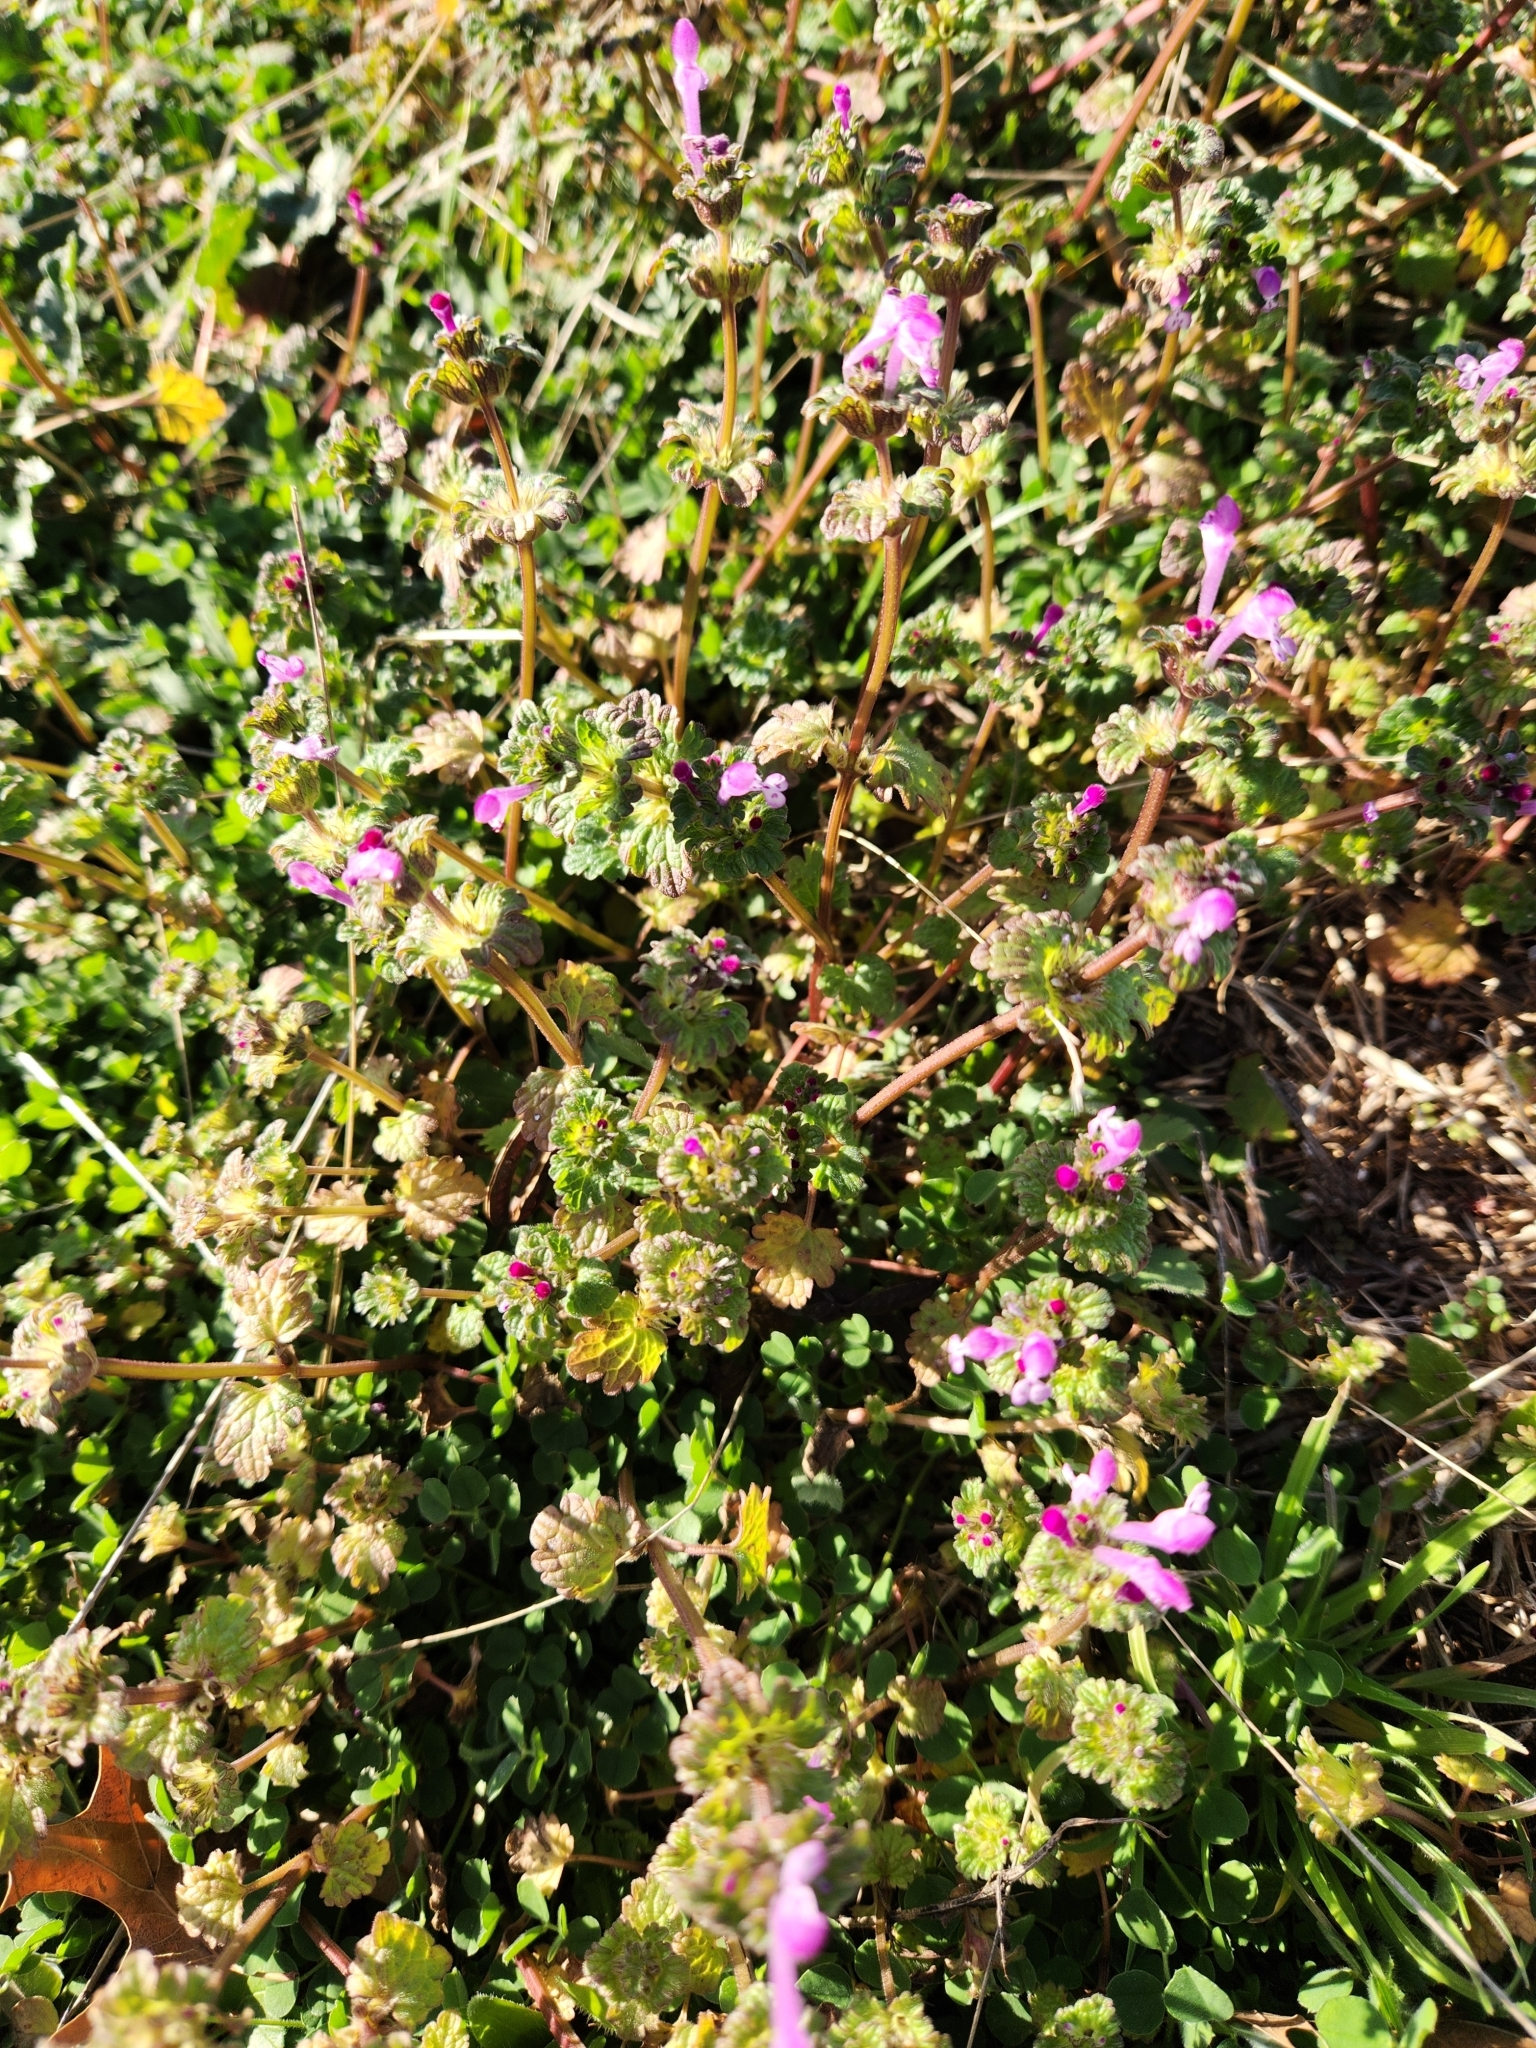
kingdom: Plantae
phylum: Tracheophyta
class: Magnoliopsida
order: Lamiales
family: Lamiaceae
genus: Lamium
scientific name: Lamium amplexicaule
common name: Henbit dead-nettle
